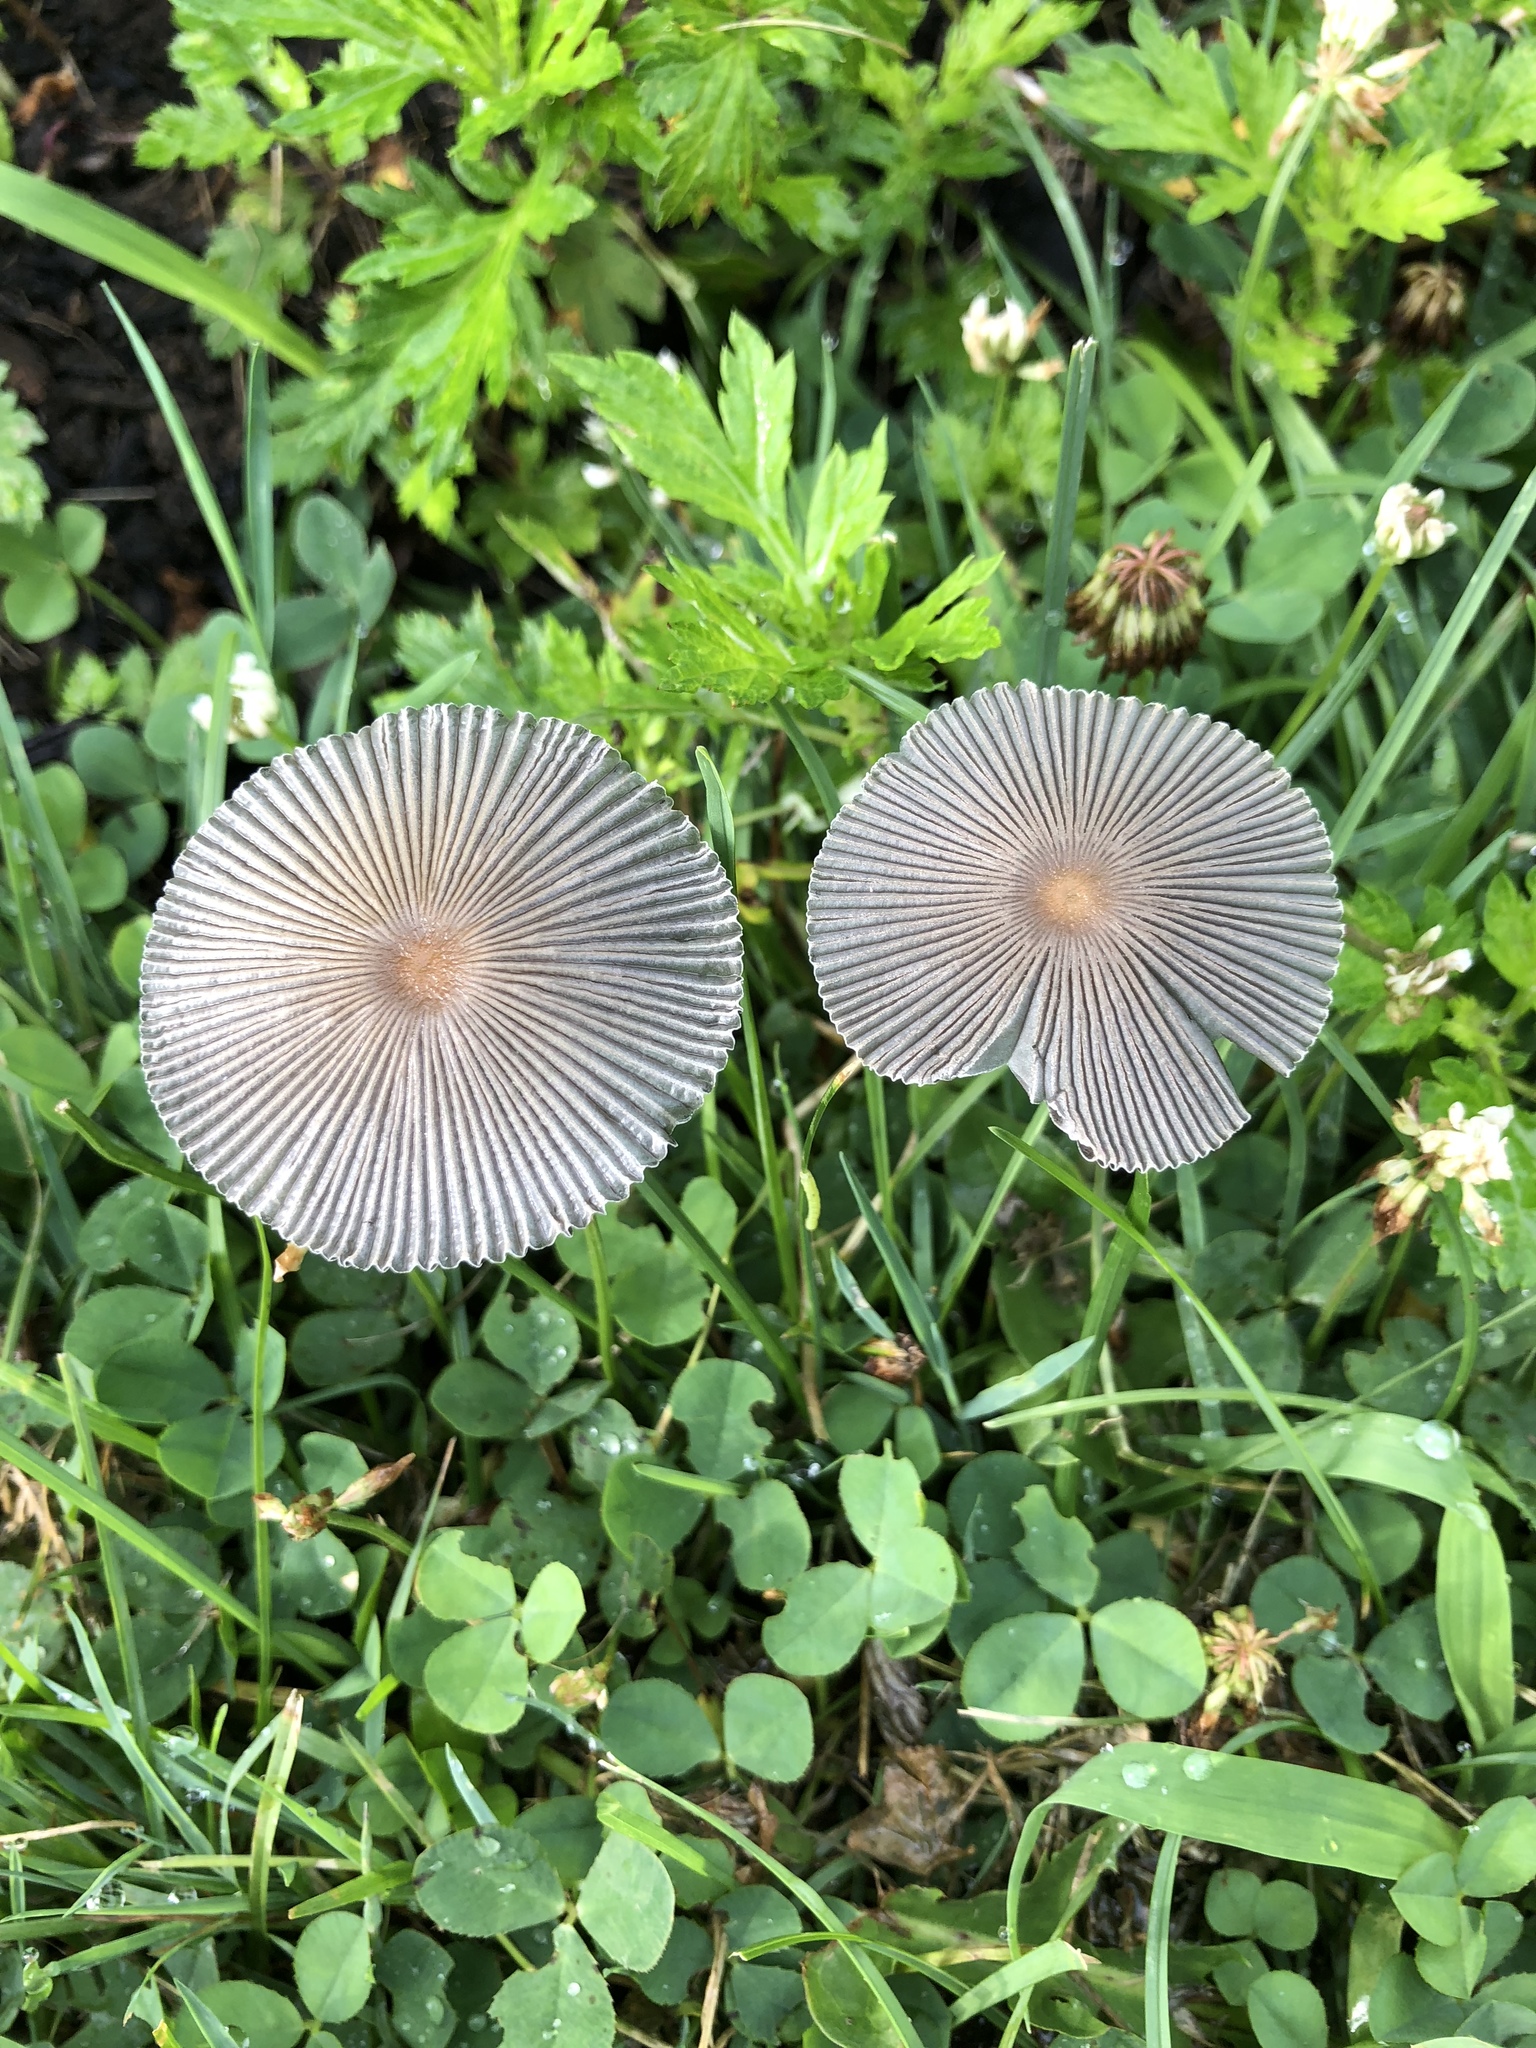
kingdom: Fungi
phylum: Basidiomycota
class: Agaricomycetes
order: Agaricales
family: Psathyrellaceae
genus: Parasola
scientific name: Parasola plicatilis
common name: Pleated inkcap
